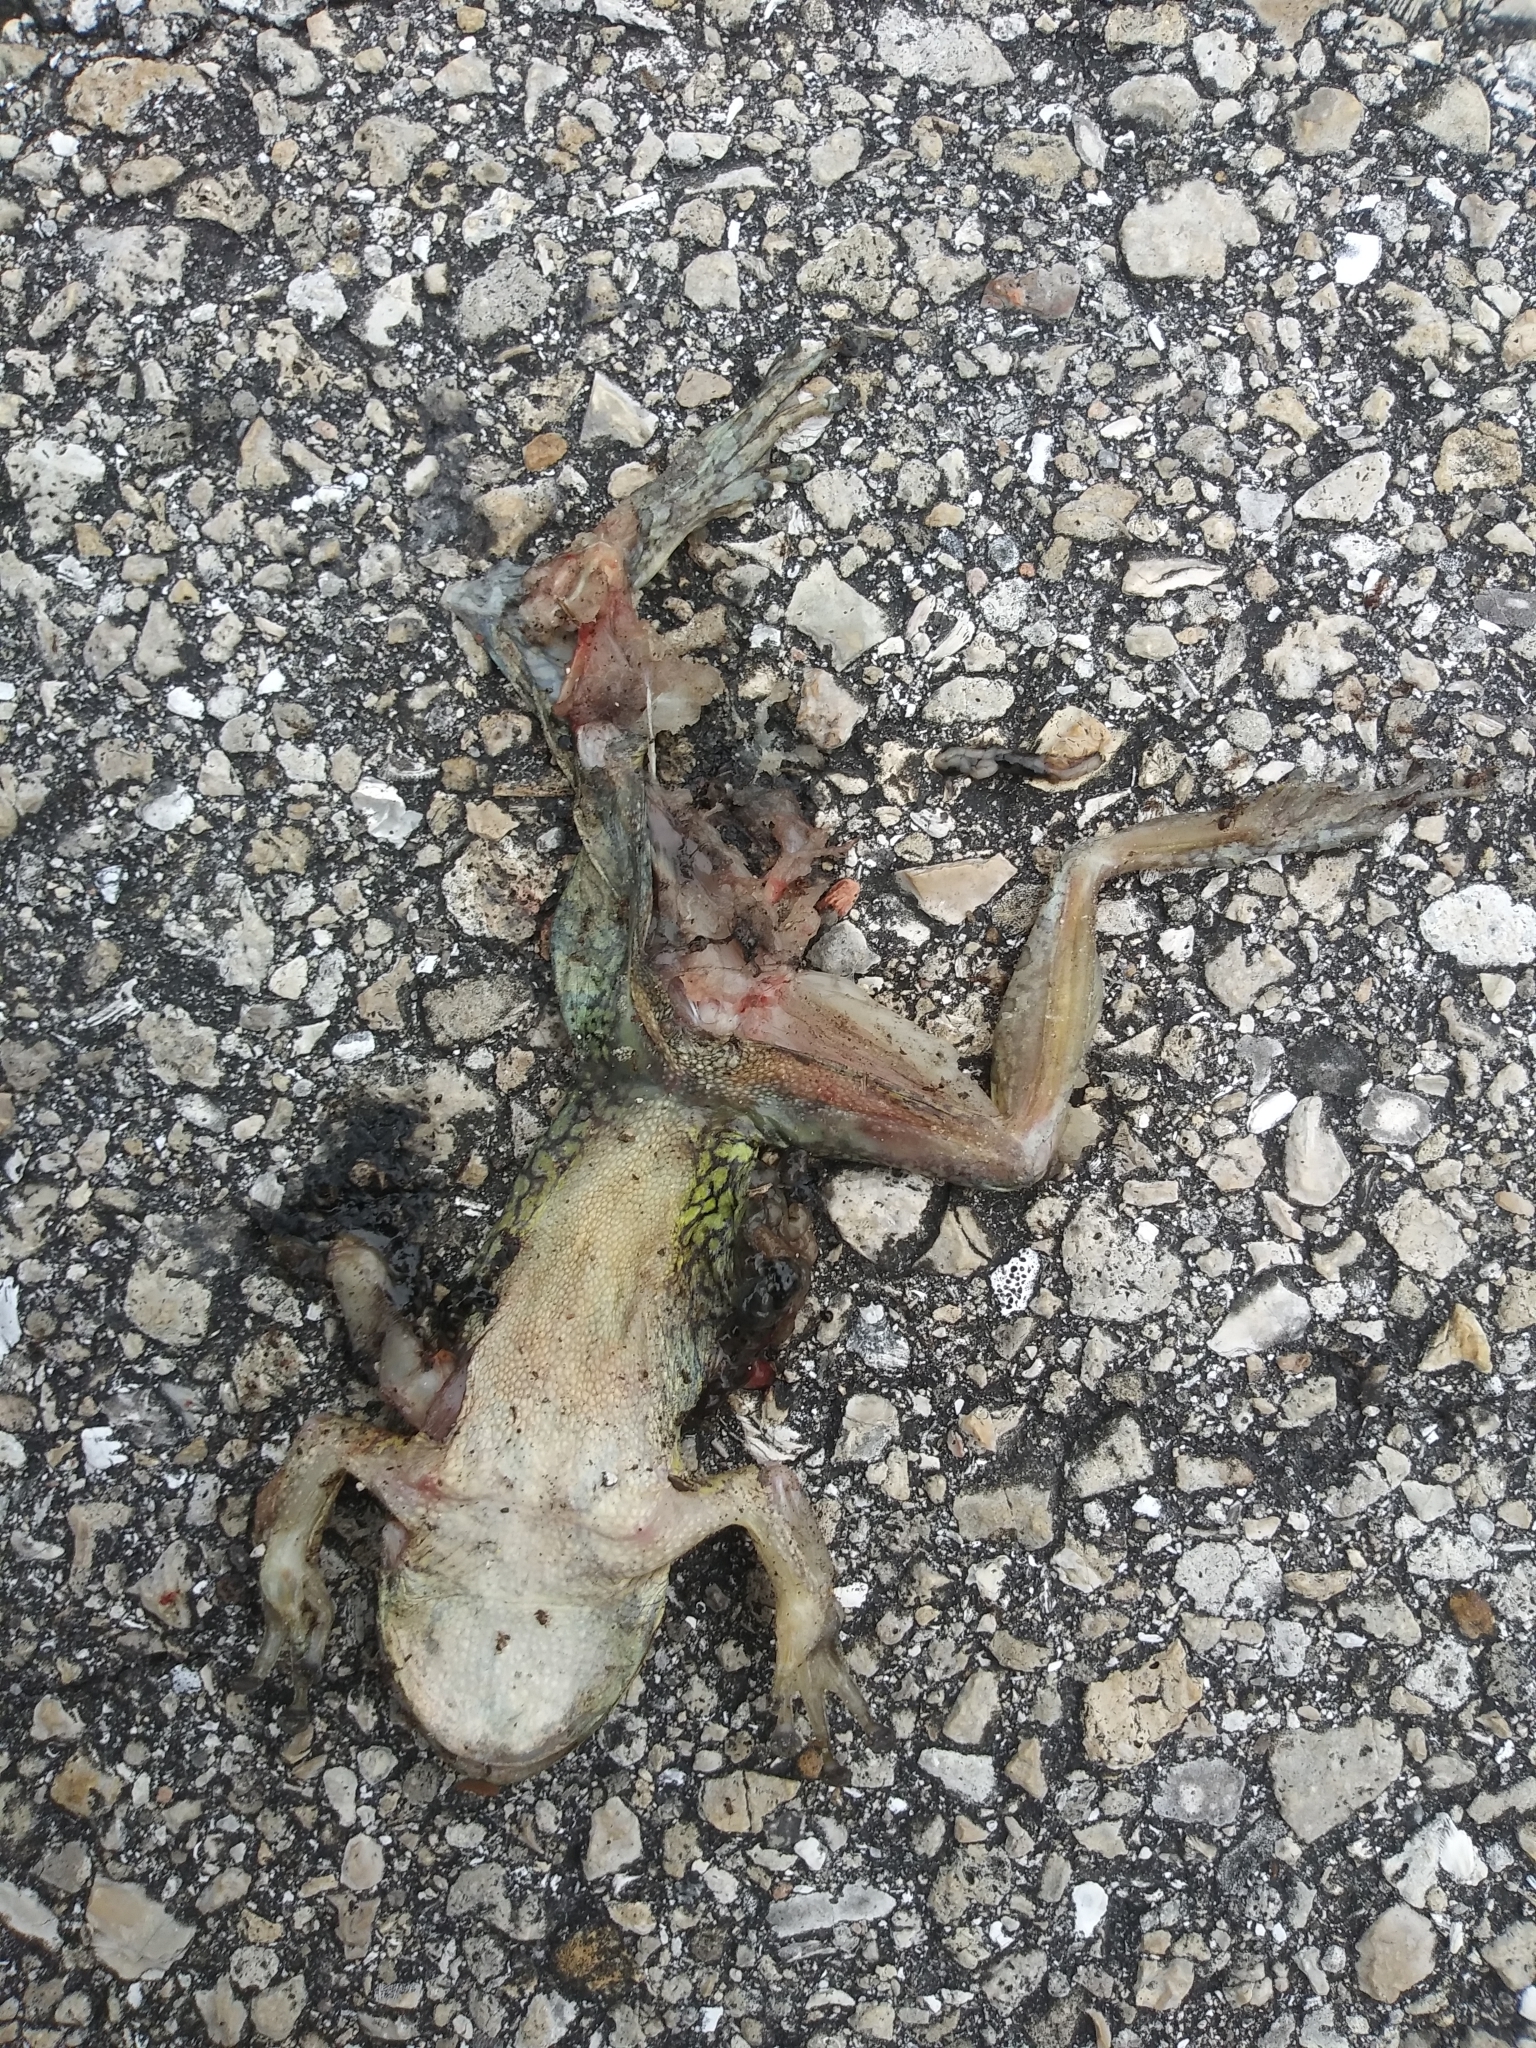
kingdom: Animalia
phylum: Chordata
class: Amphibia
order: Anura
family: Hylidae
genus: Osteopilus
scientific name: Osteopilus septentrionalis
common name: Cuban treefrog
